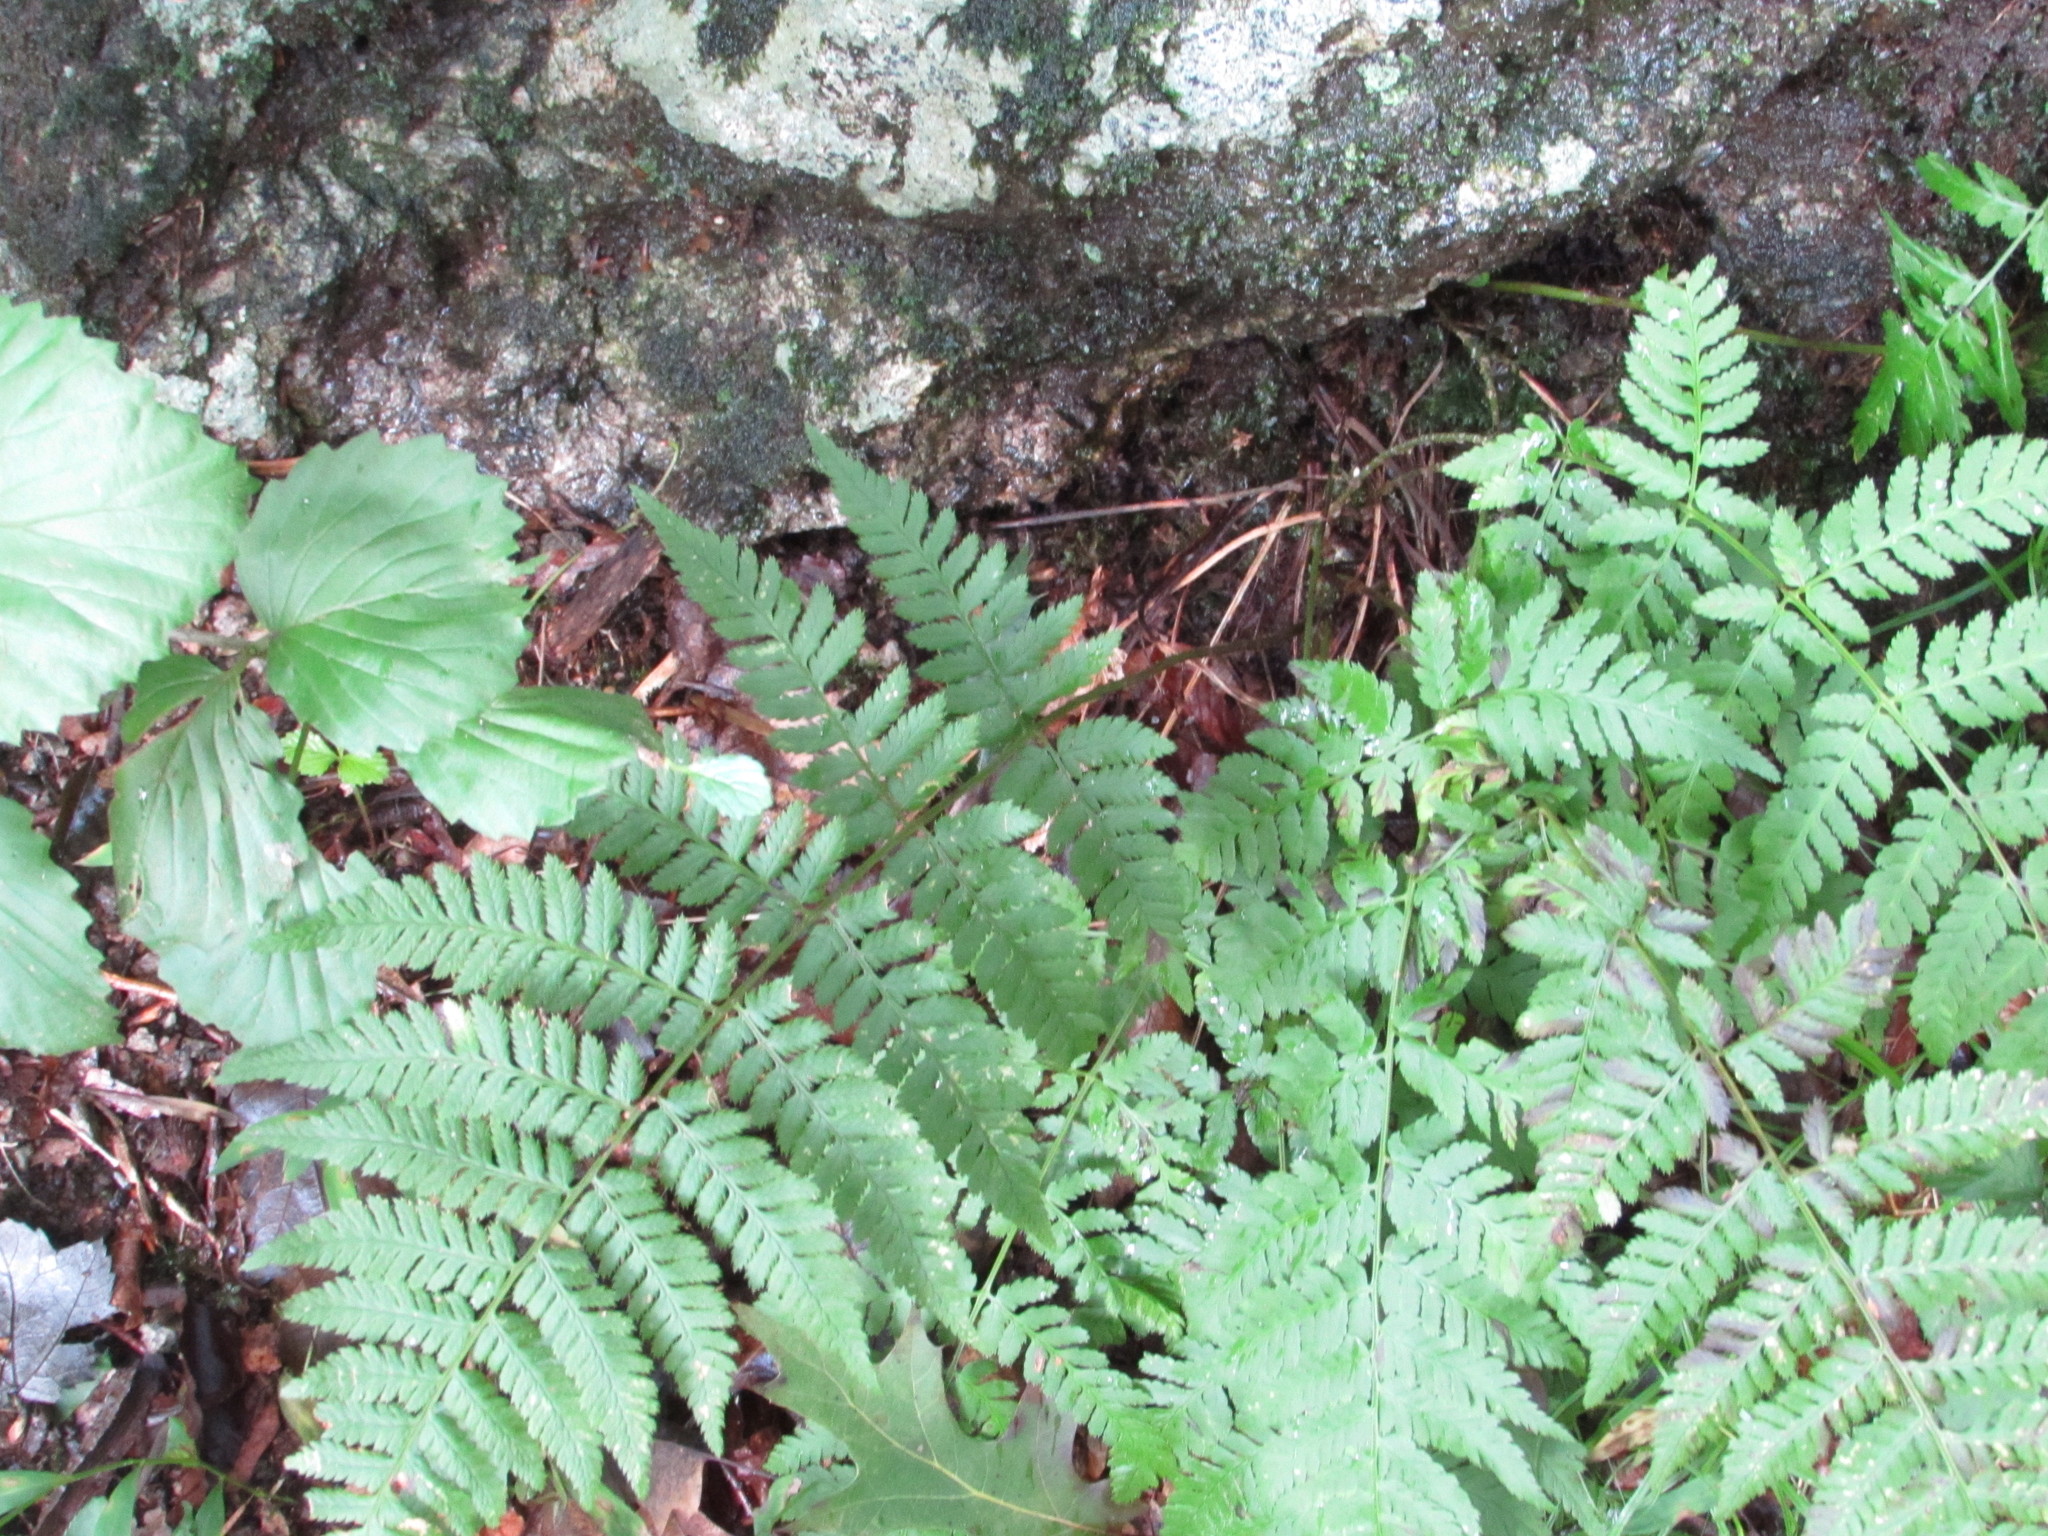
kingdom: Plantae
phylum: Tracheophyta
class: Polypodiopsida
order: Polypodiales
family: Dryopteridaceae
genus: Dryopteris
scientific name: Dryopteris carthusiana
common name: Narrow buckler-fern
